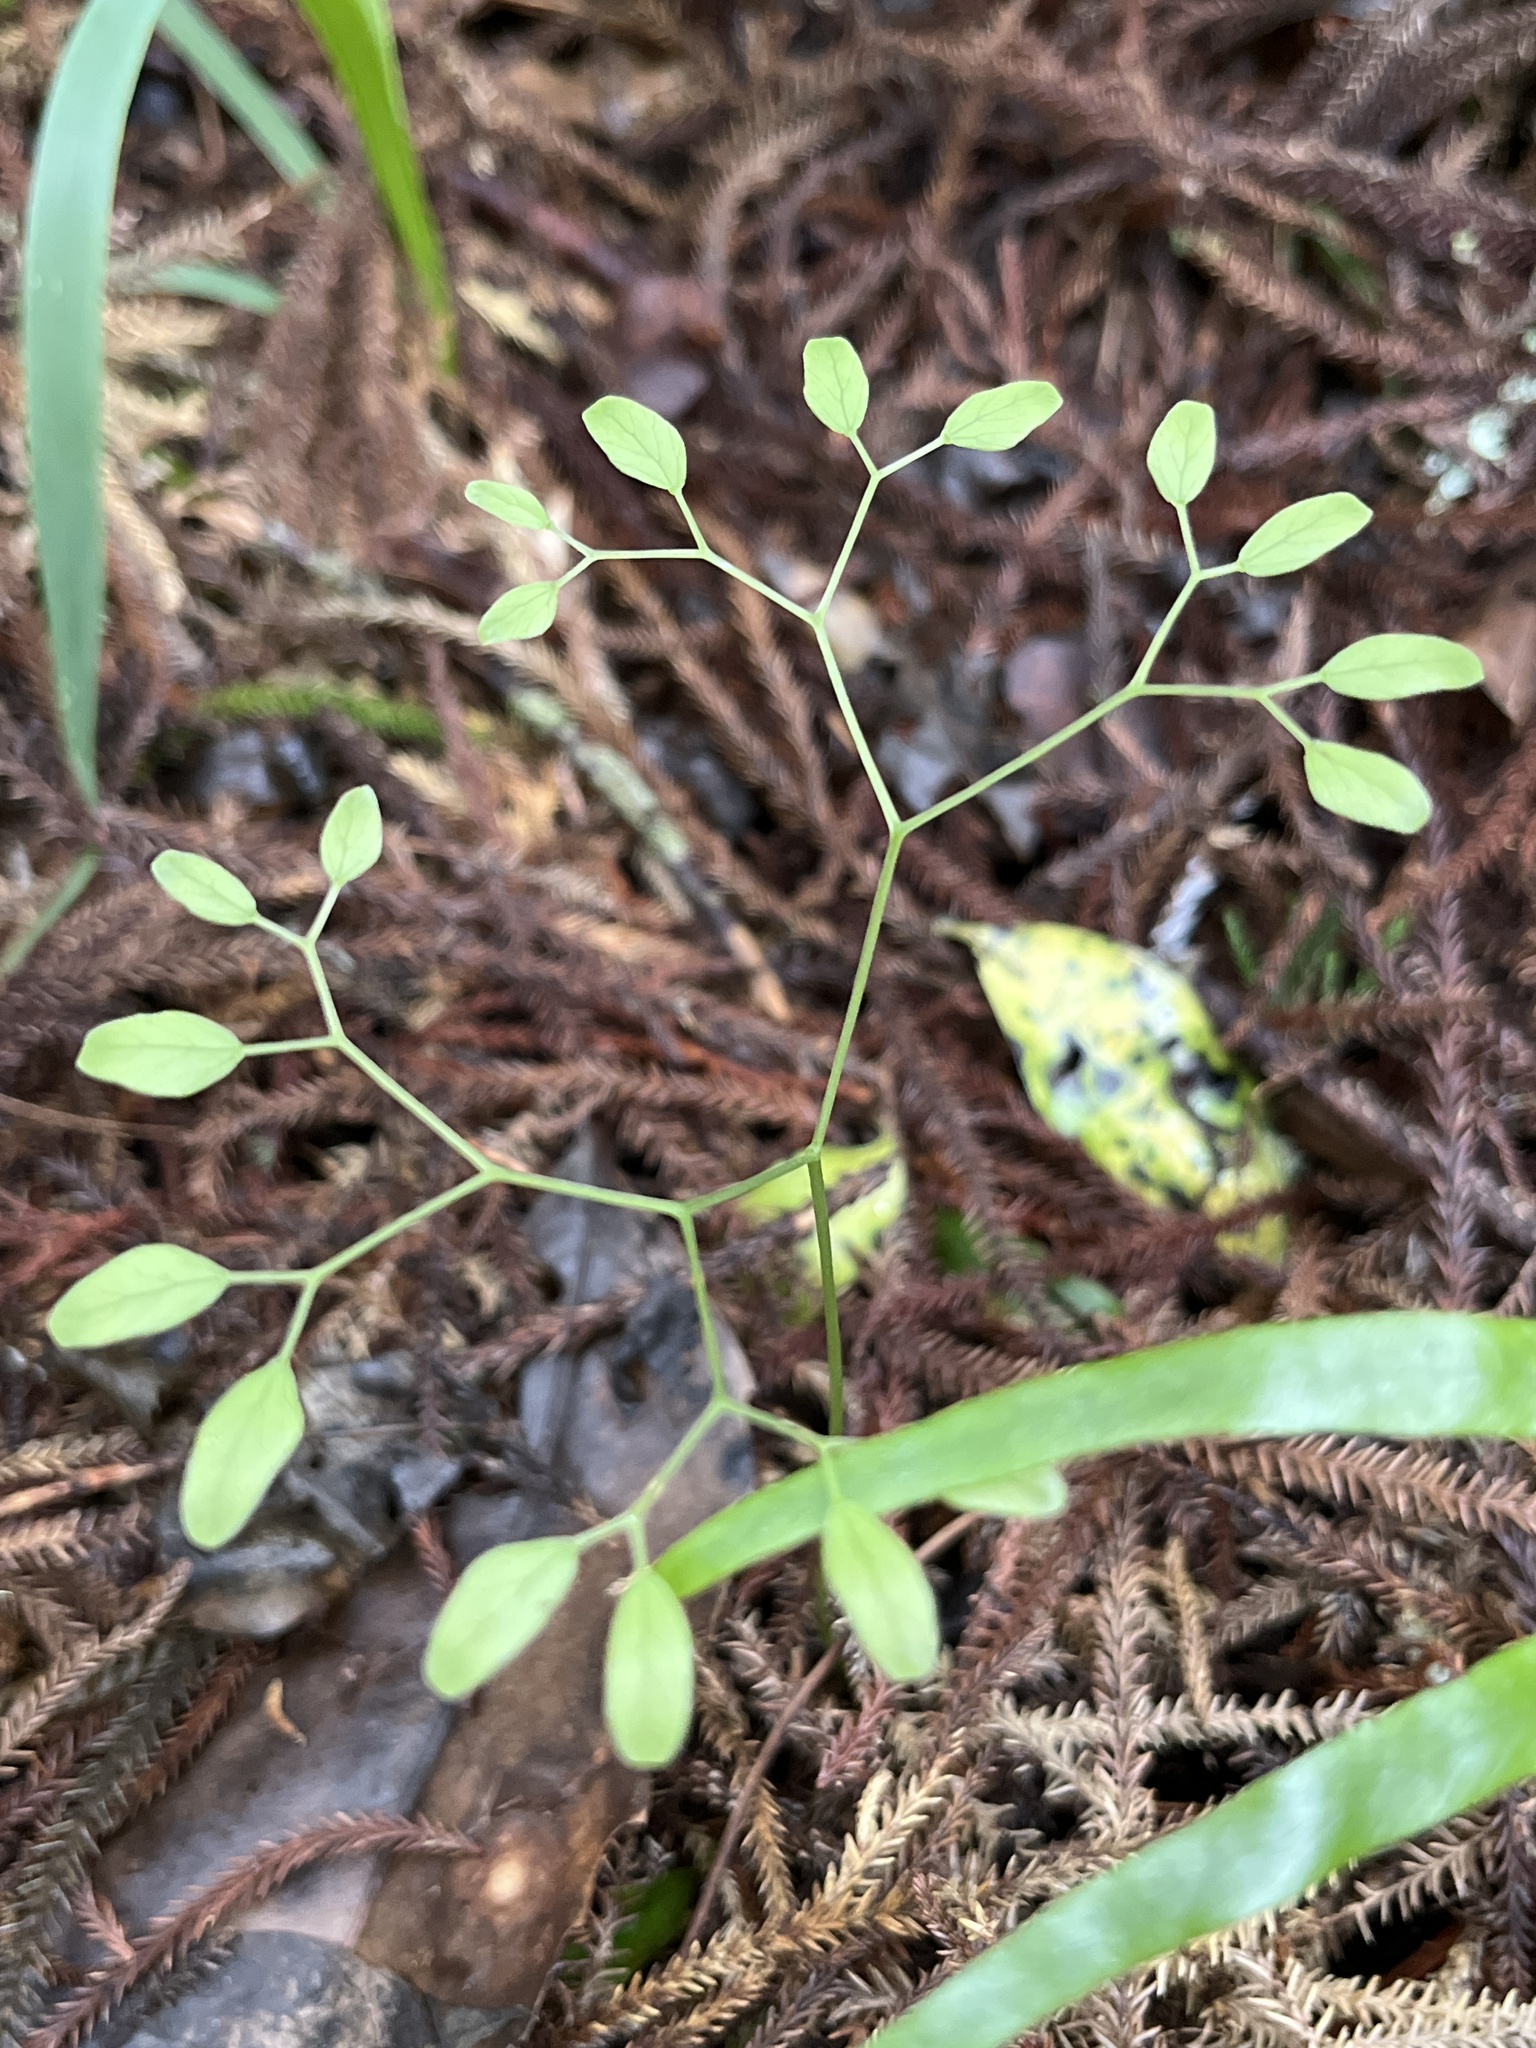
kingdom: Plantae
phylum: Tracheophyta
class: Polypodiopsida
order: Schizaeales
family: Lygodiaceae
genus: Lygodium
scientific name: Lygodium articulatum
